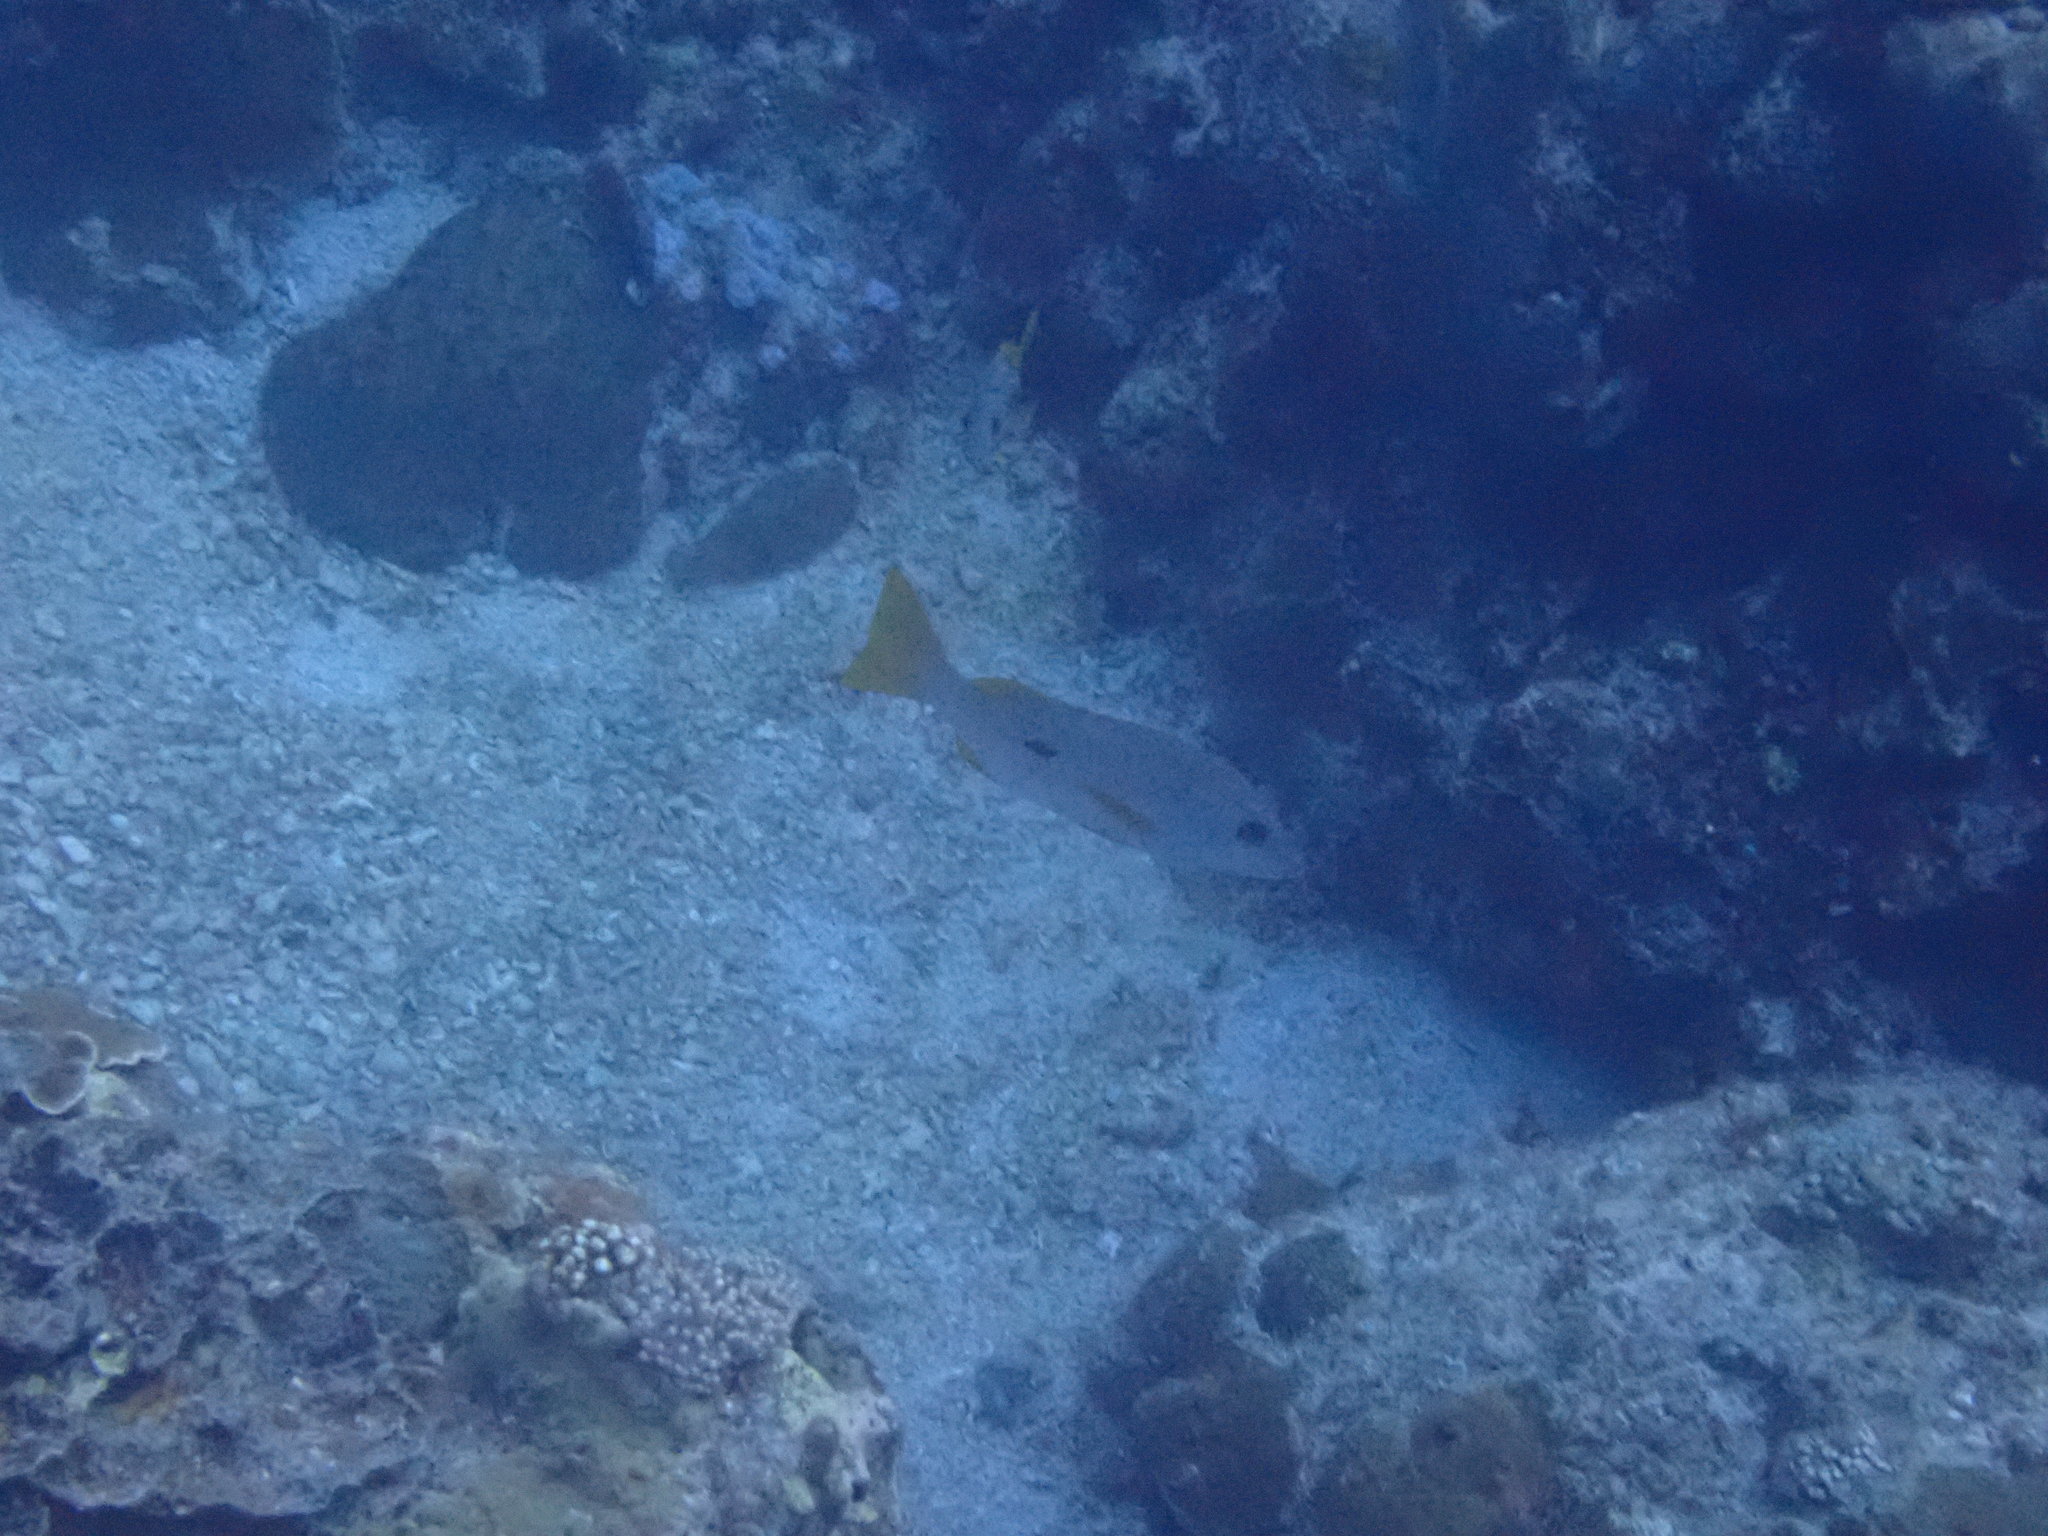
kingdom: Animalia
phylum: Chordata
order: Perciformes
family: Lutjanidae
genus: Lutjanus
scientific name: Lutjanus monostigma
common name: Onespot snapper
